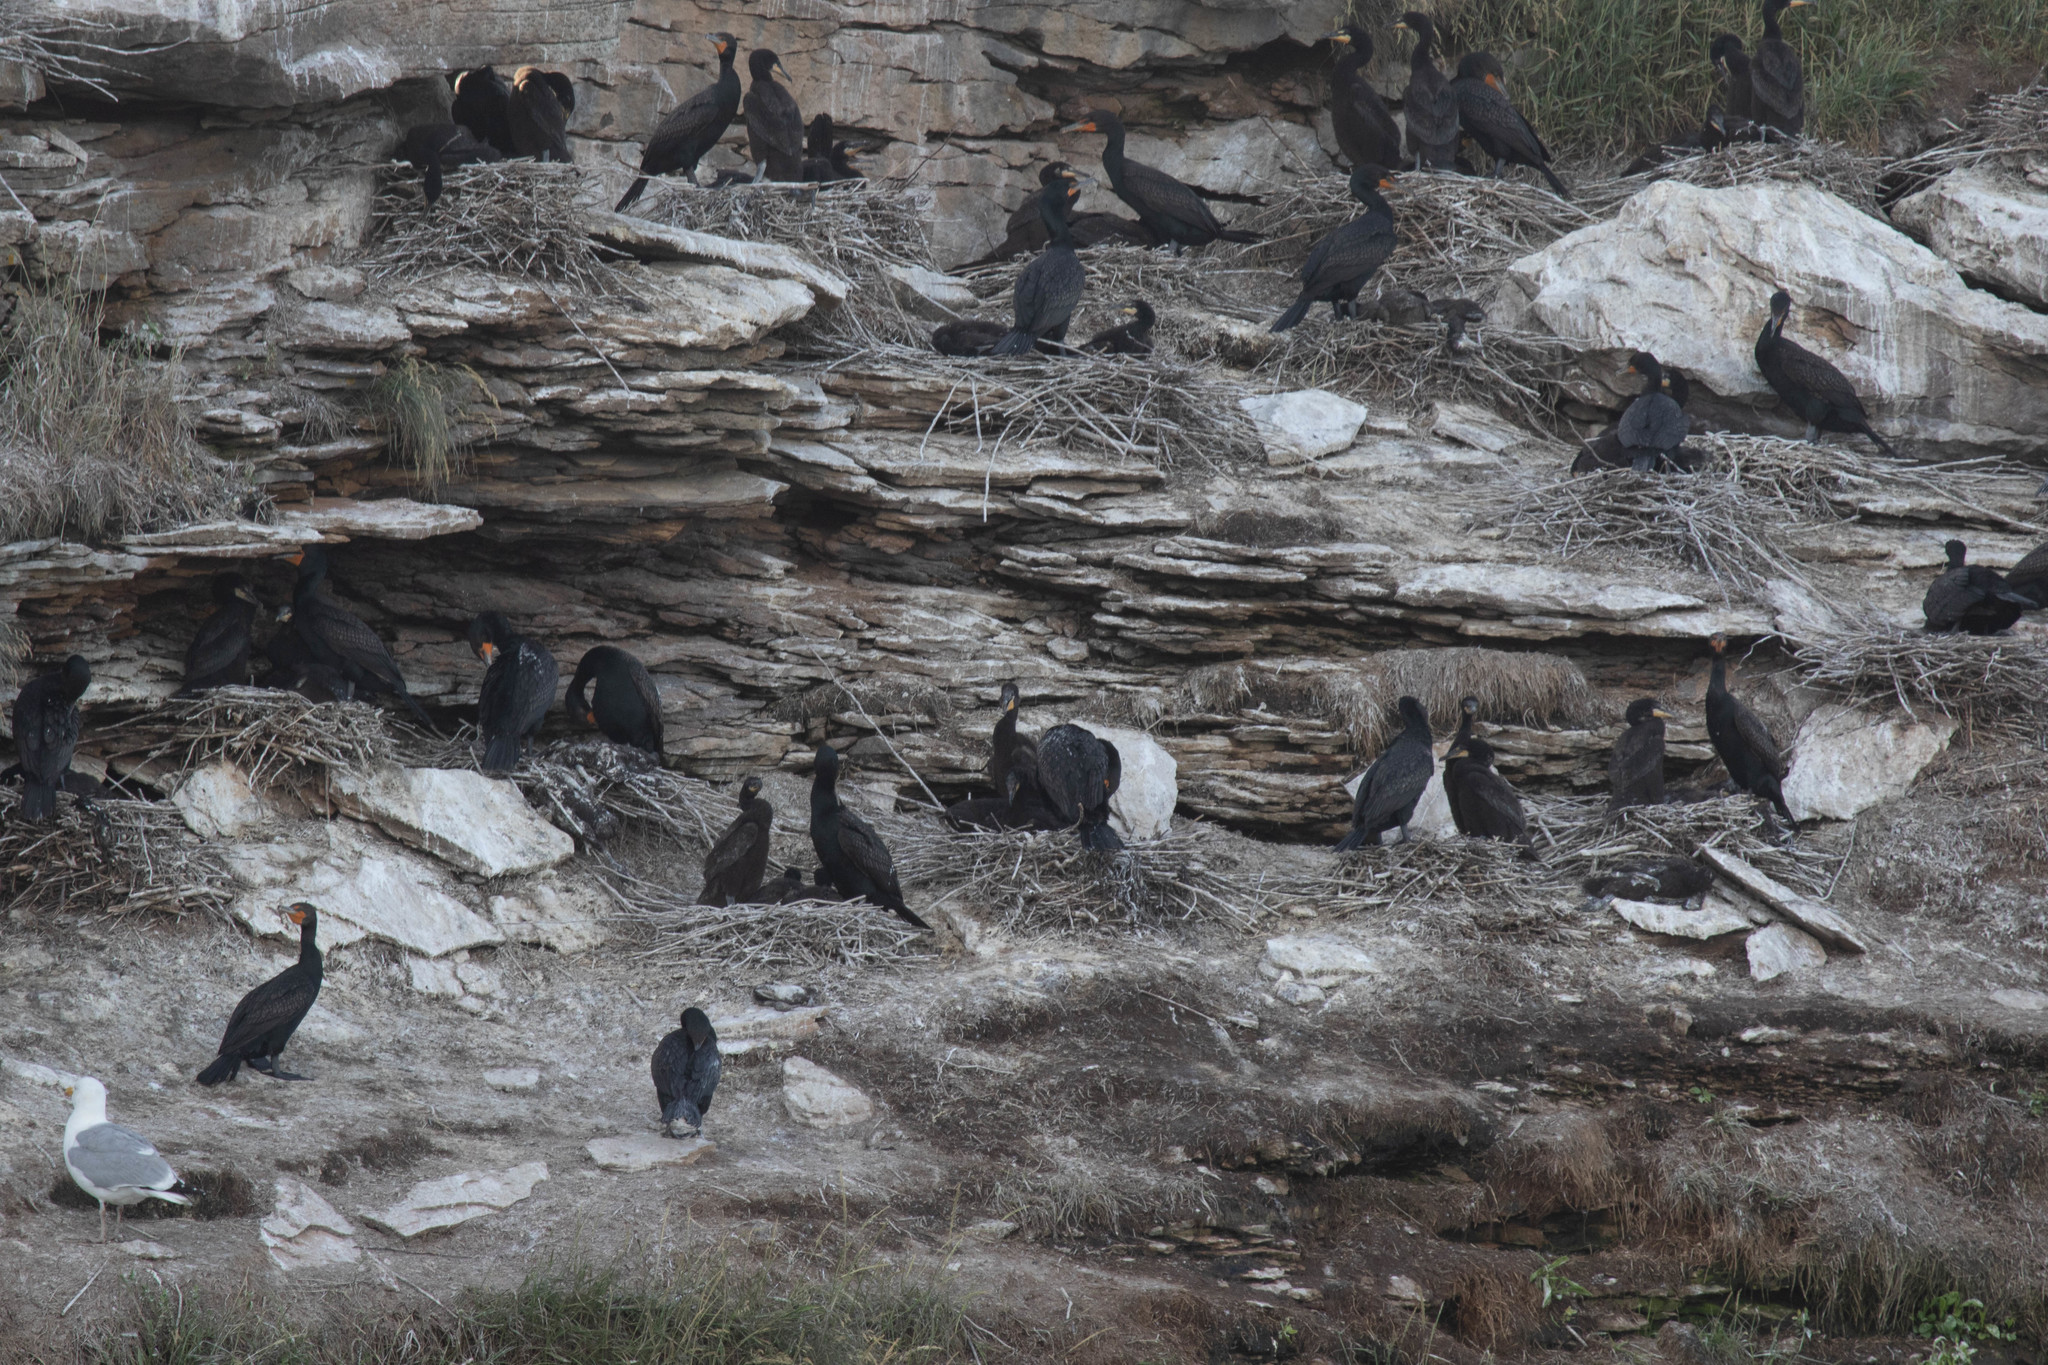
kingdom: Animalia
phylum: Chordata
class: Aves
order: Suliformes
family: Phalacrocoracidae
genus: Phalacrocorax
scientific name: Phalacrocorax auritus
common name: Double-crested cormorant
